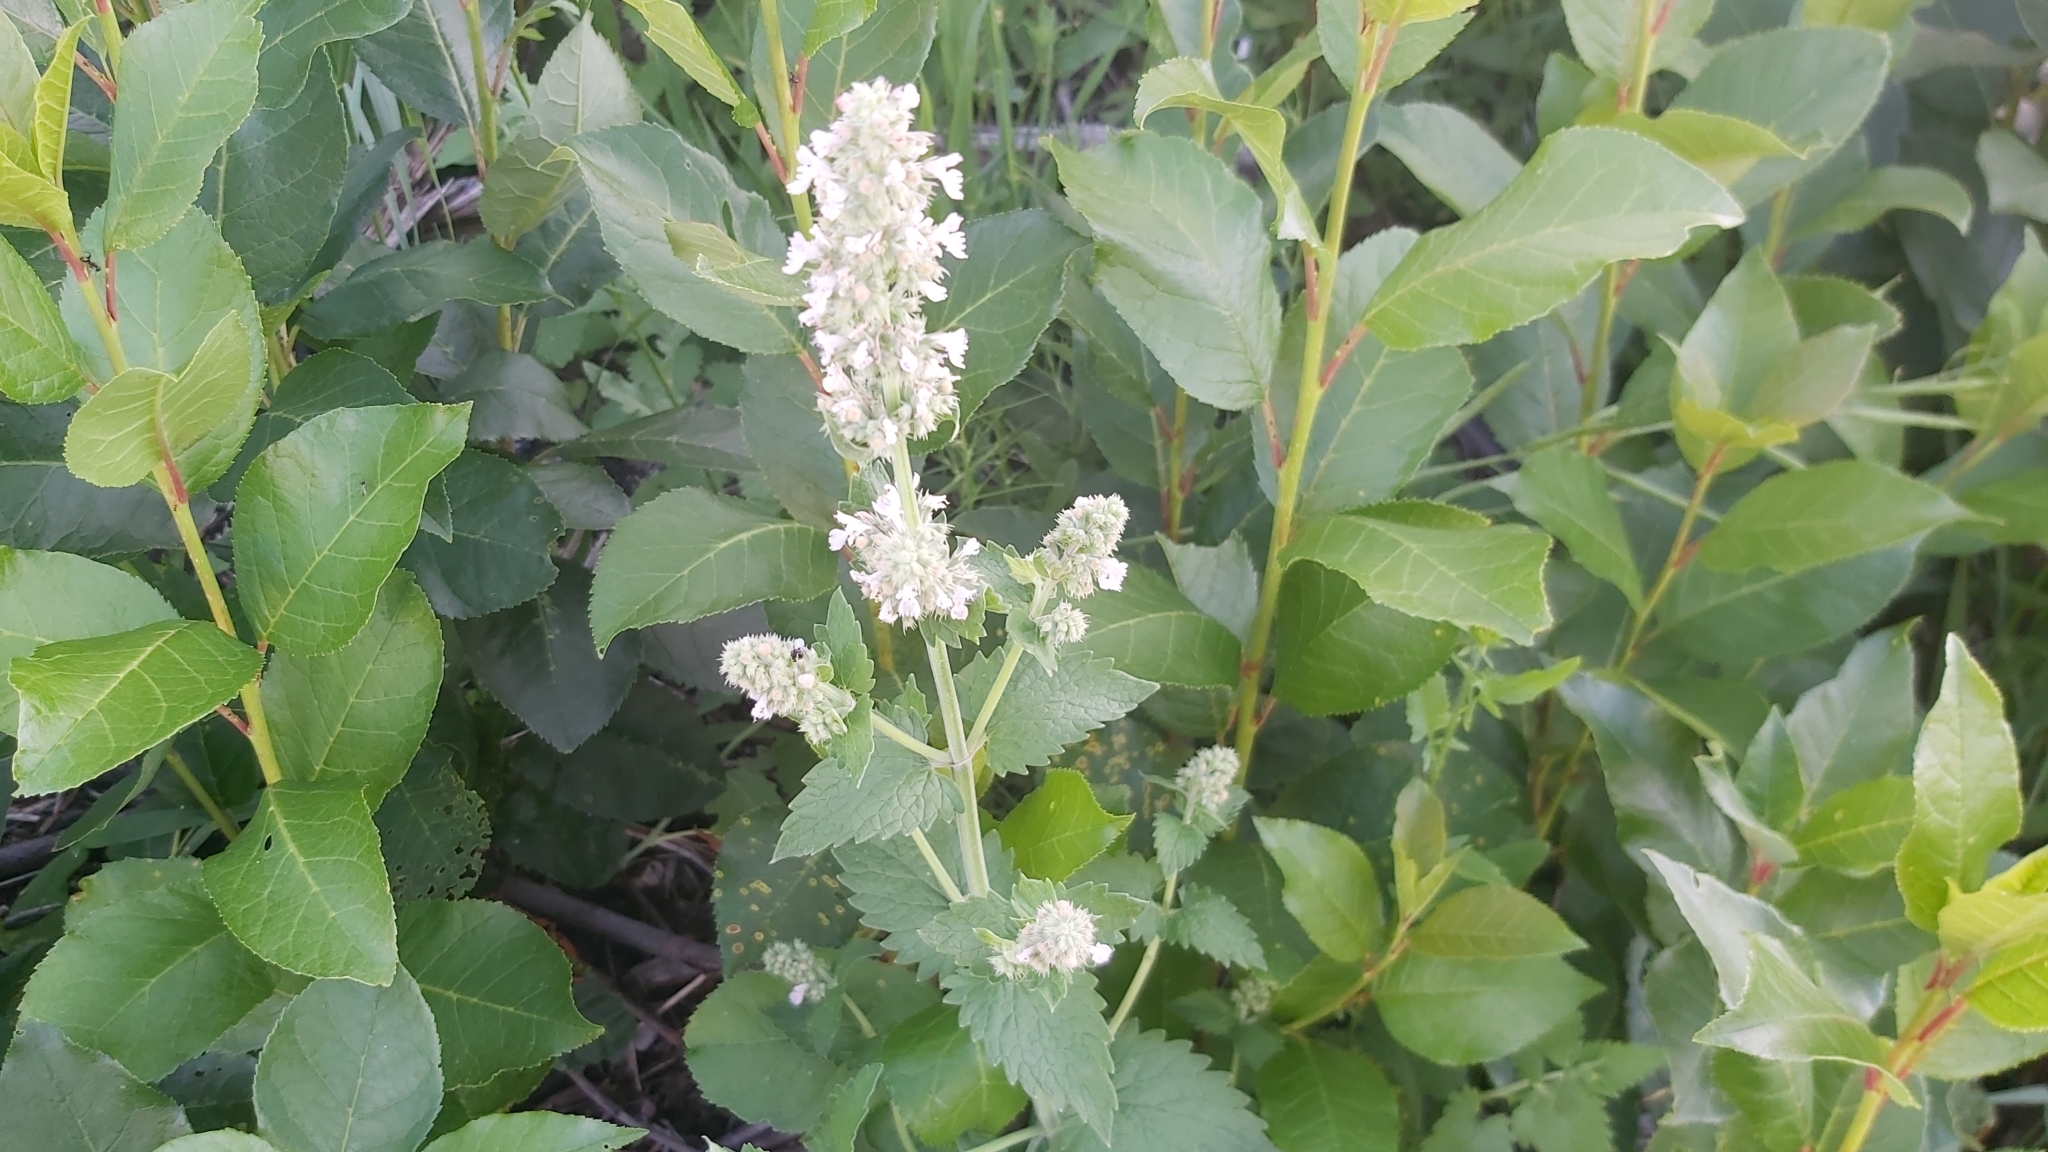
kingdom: Plantae
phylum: Tracheophyta
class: Magnoliopsida
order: Lamiales
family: Lamiaceae
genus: Nepeta
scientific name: Nepeta cataria
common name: Catnip
